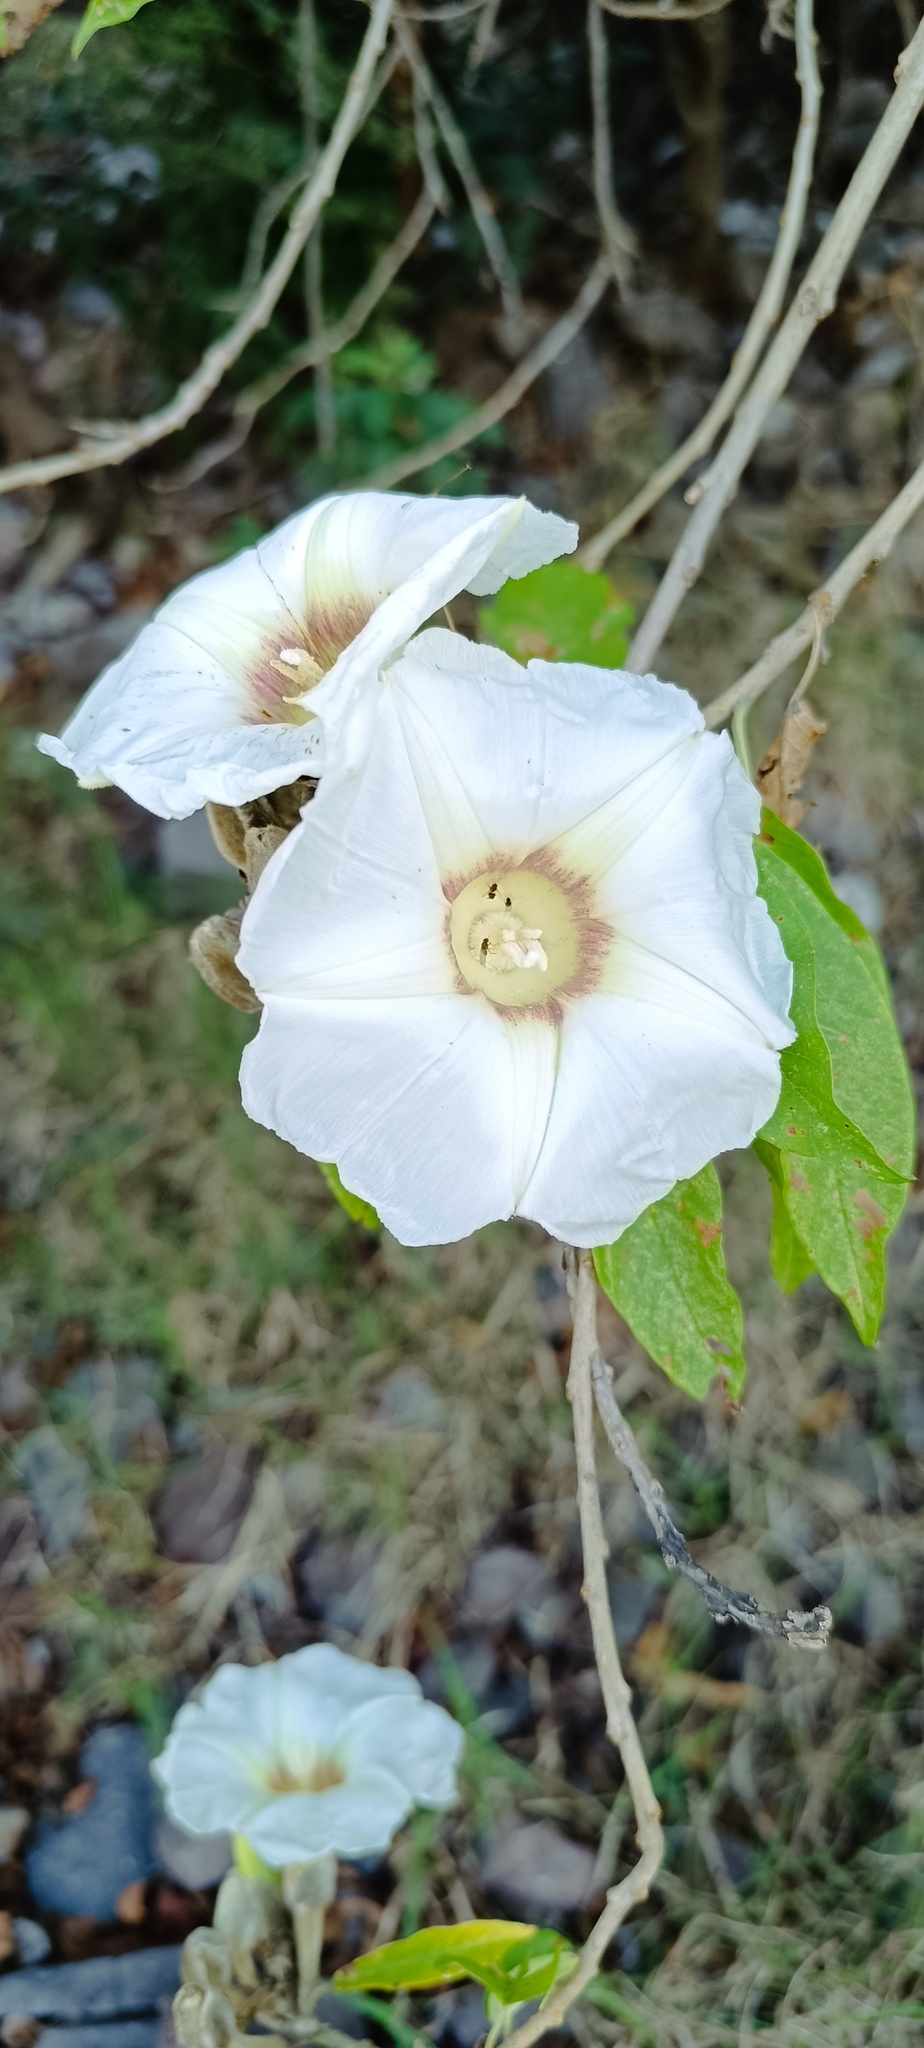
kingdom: Plantae
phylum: Tracheophyta
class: Magnoliopsida
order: Solanales
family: Convolvulaceae
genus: Ipomoea
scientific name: Ipomoea murucoides
